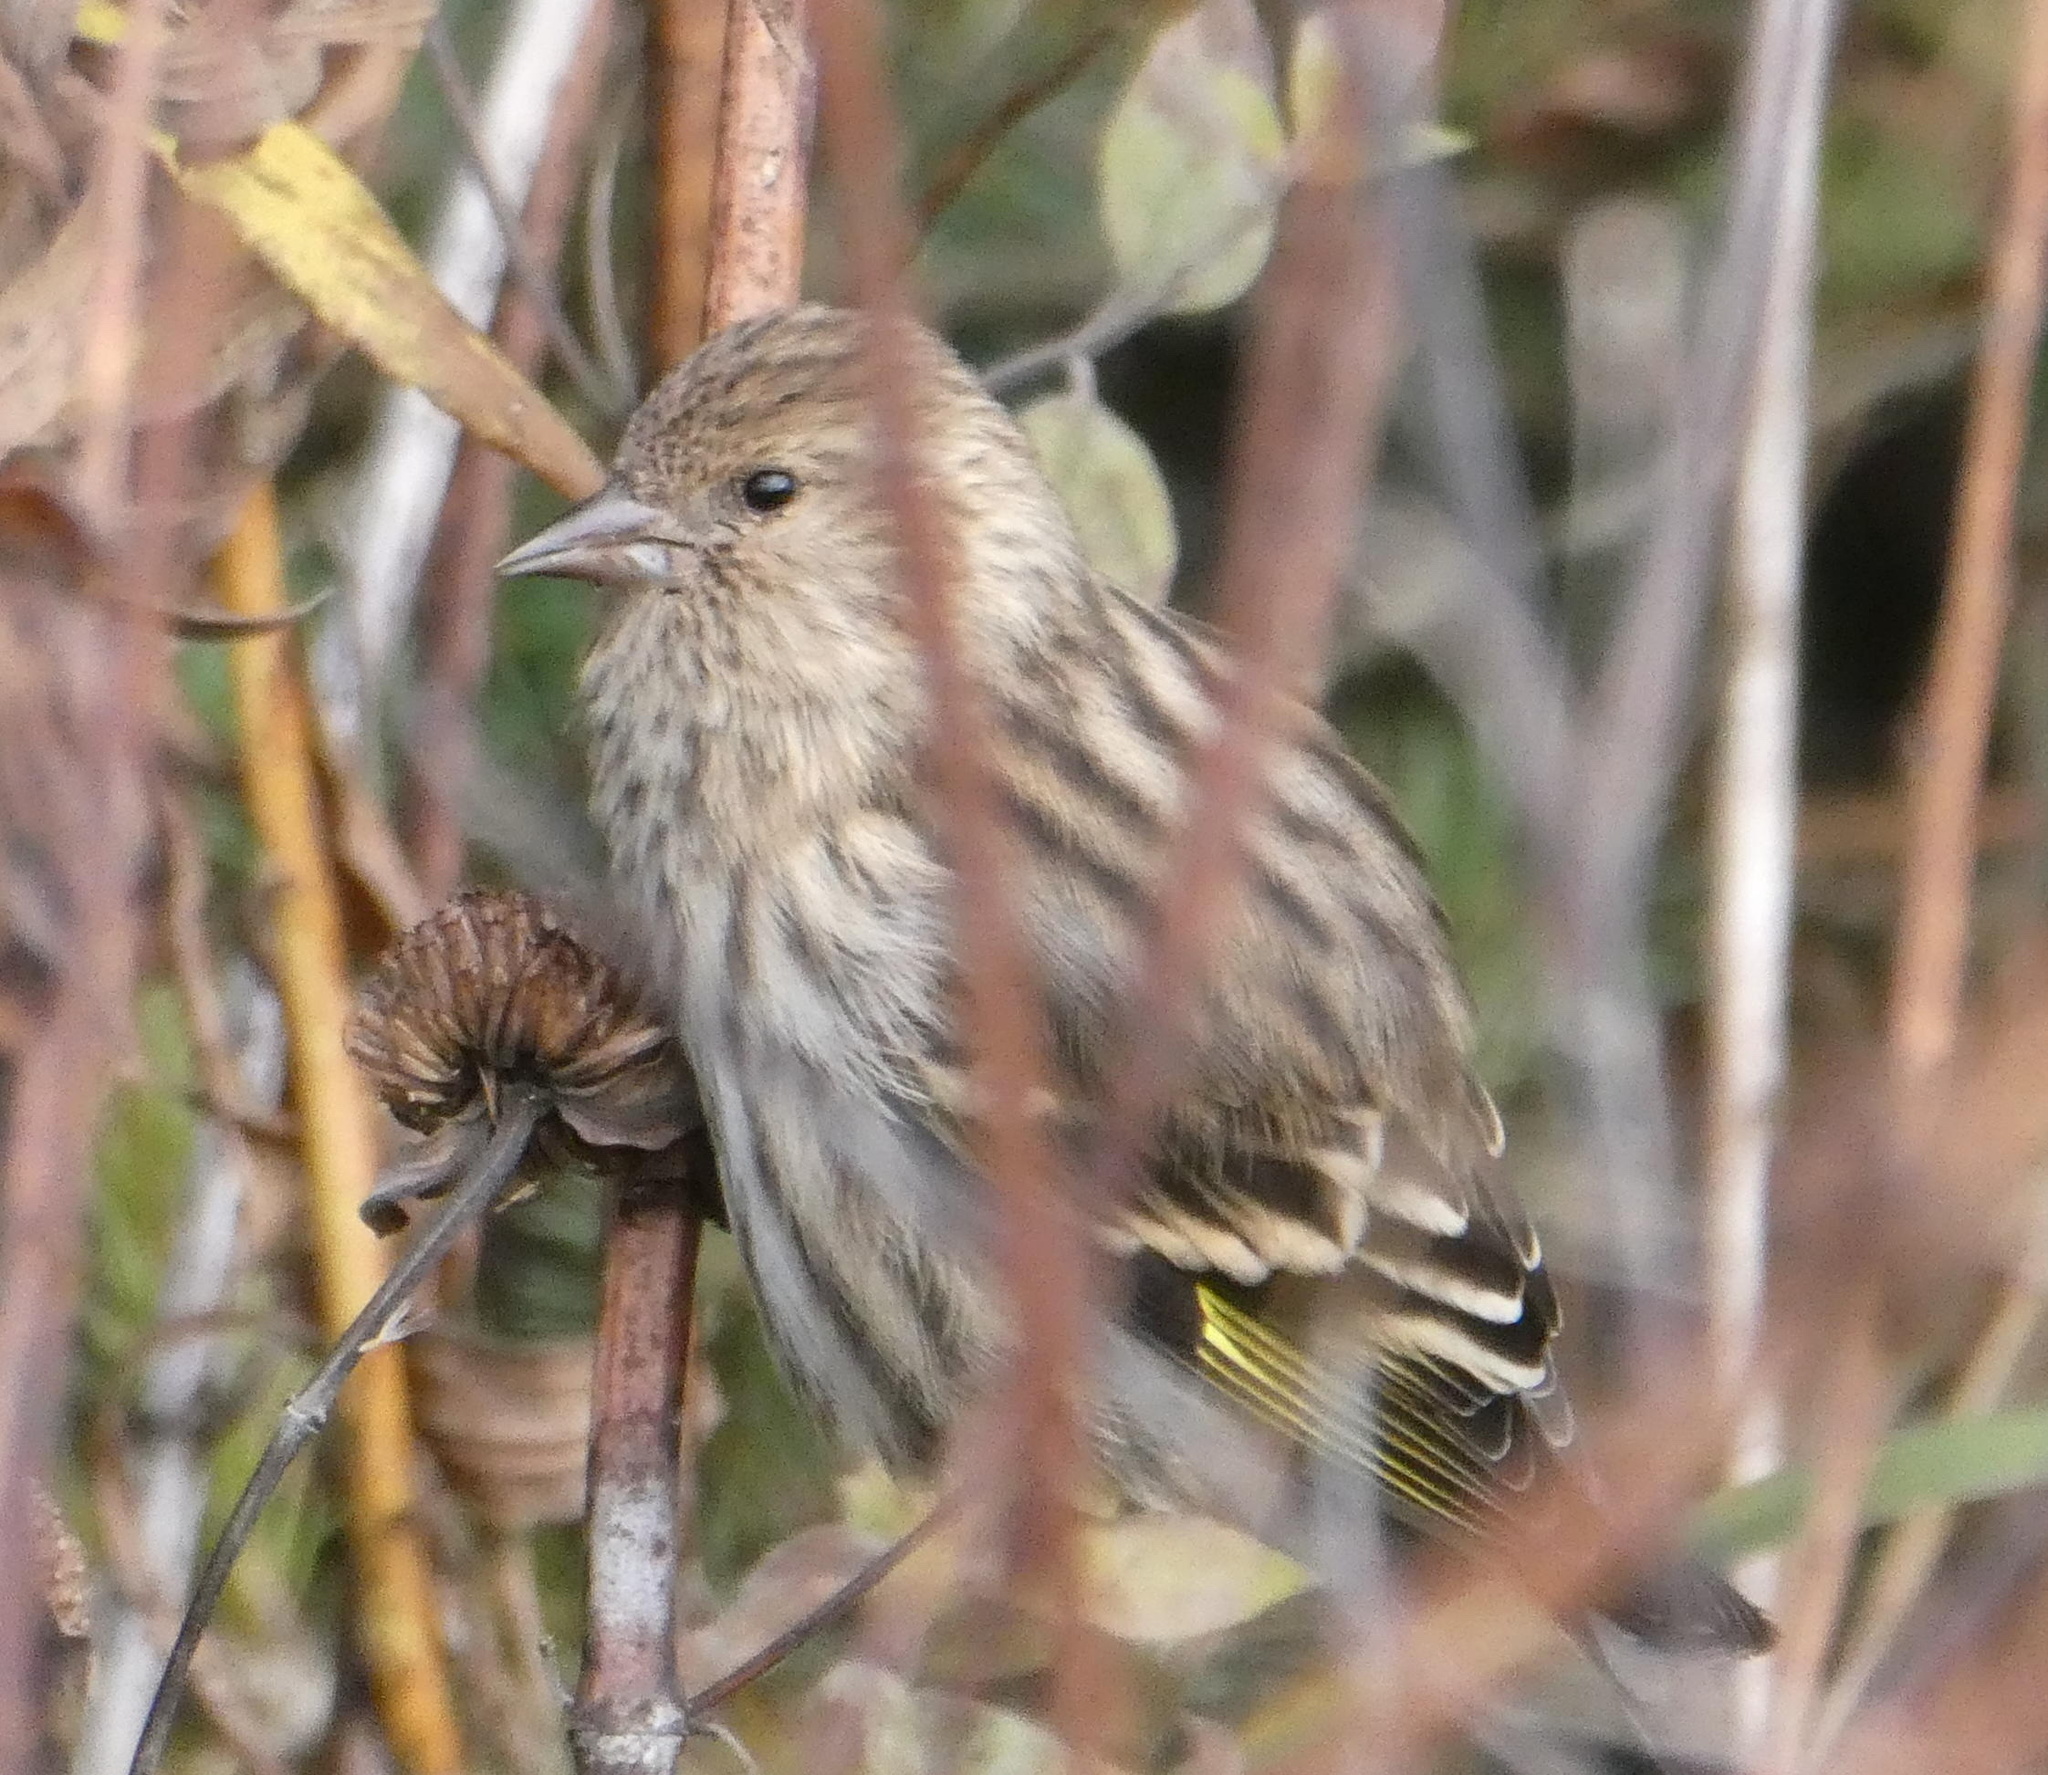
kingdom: Animalia
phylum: Chordata
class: Aves
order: Passeriformes
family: Fringillidae
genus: Spinus
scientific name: Spinus pinus
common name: Pine siskin
